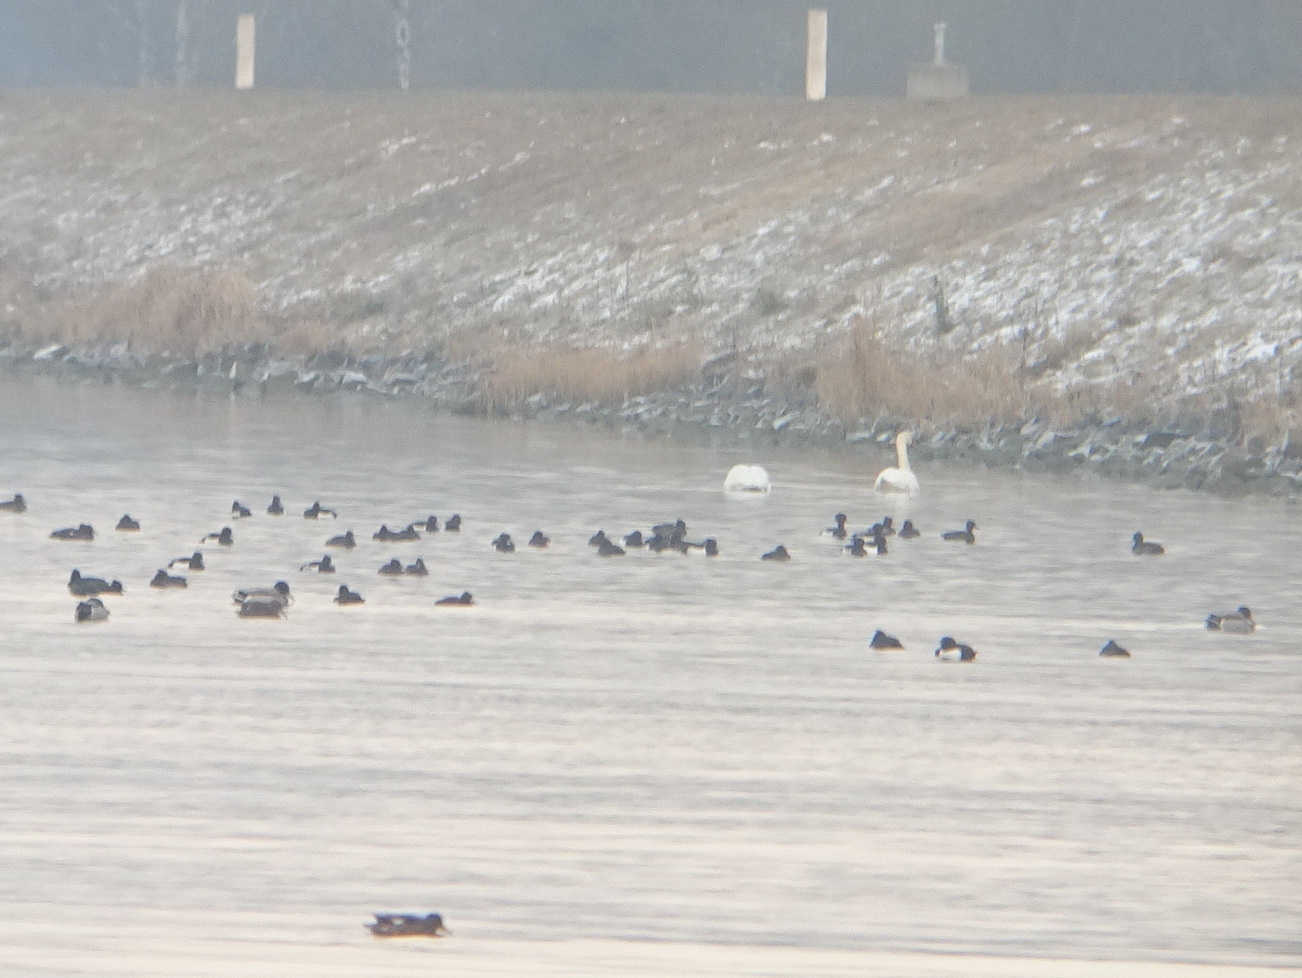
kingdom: Animalia
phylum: Chordata
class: Aves
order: Anseriformes
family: Anatidae
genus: Aythya
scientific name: Aythya fuligula
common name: Tufted duck
